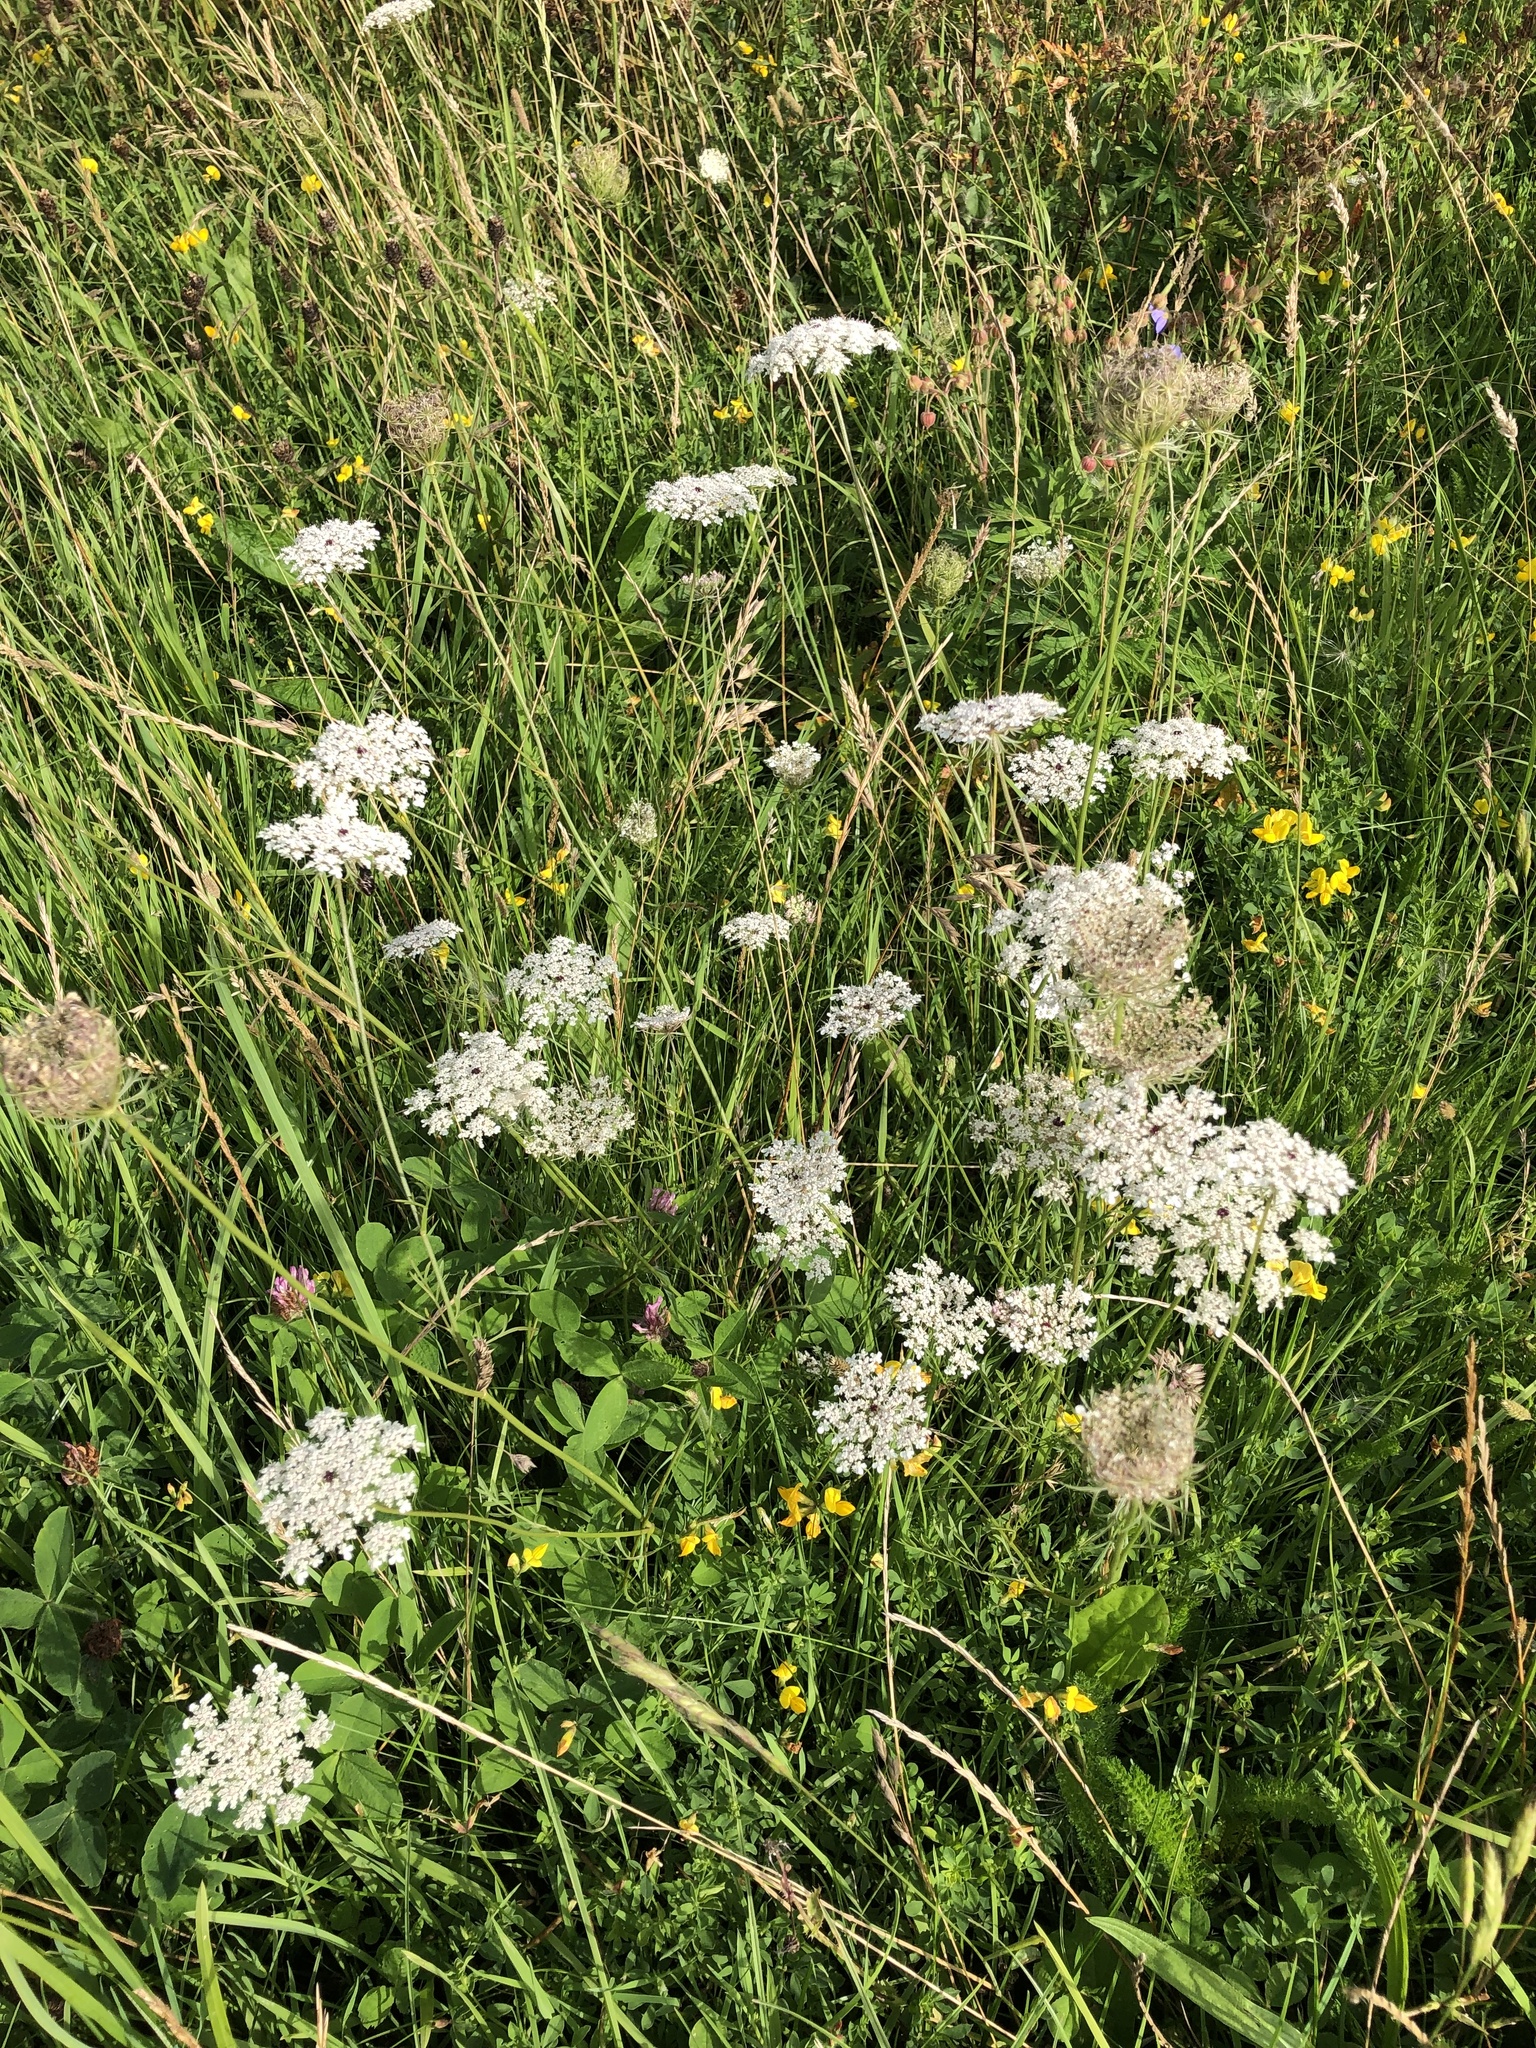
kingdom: Plantae
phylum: Tracheophyta
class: Magnoliopsida
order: Apiales
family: Apiaceae
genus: Daucus
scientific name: Daucus carota
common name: Wild carrot
